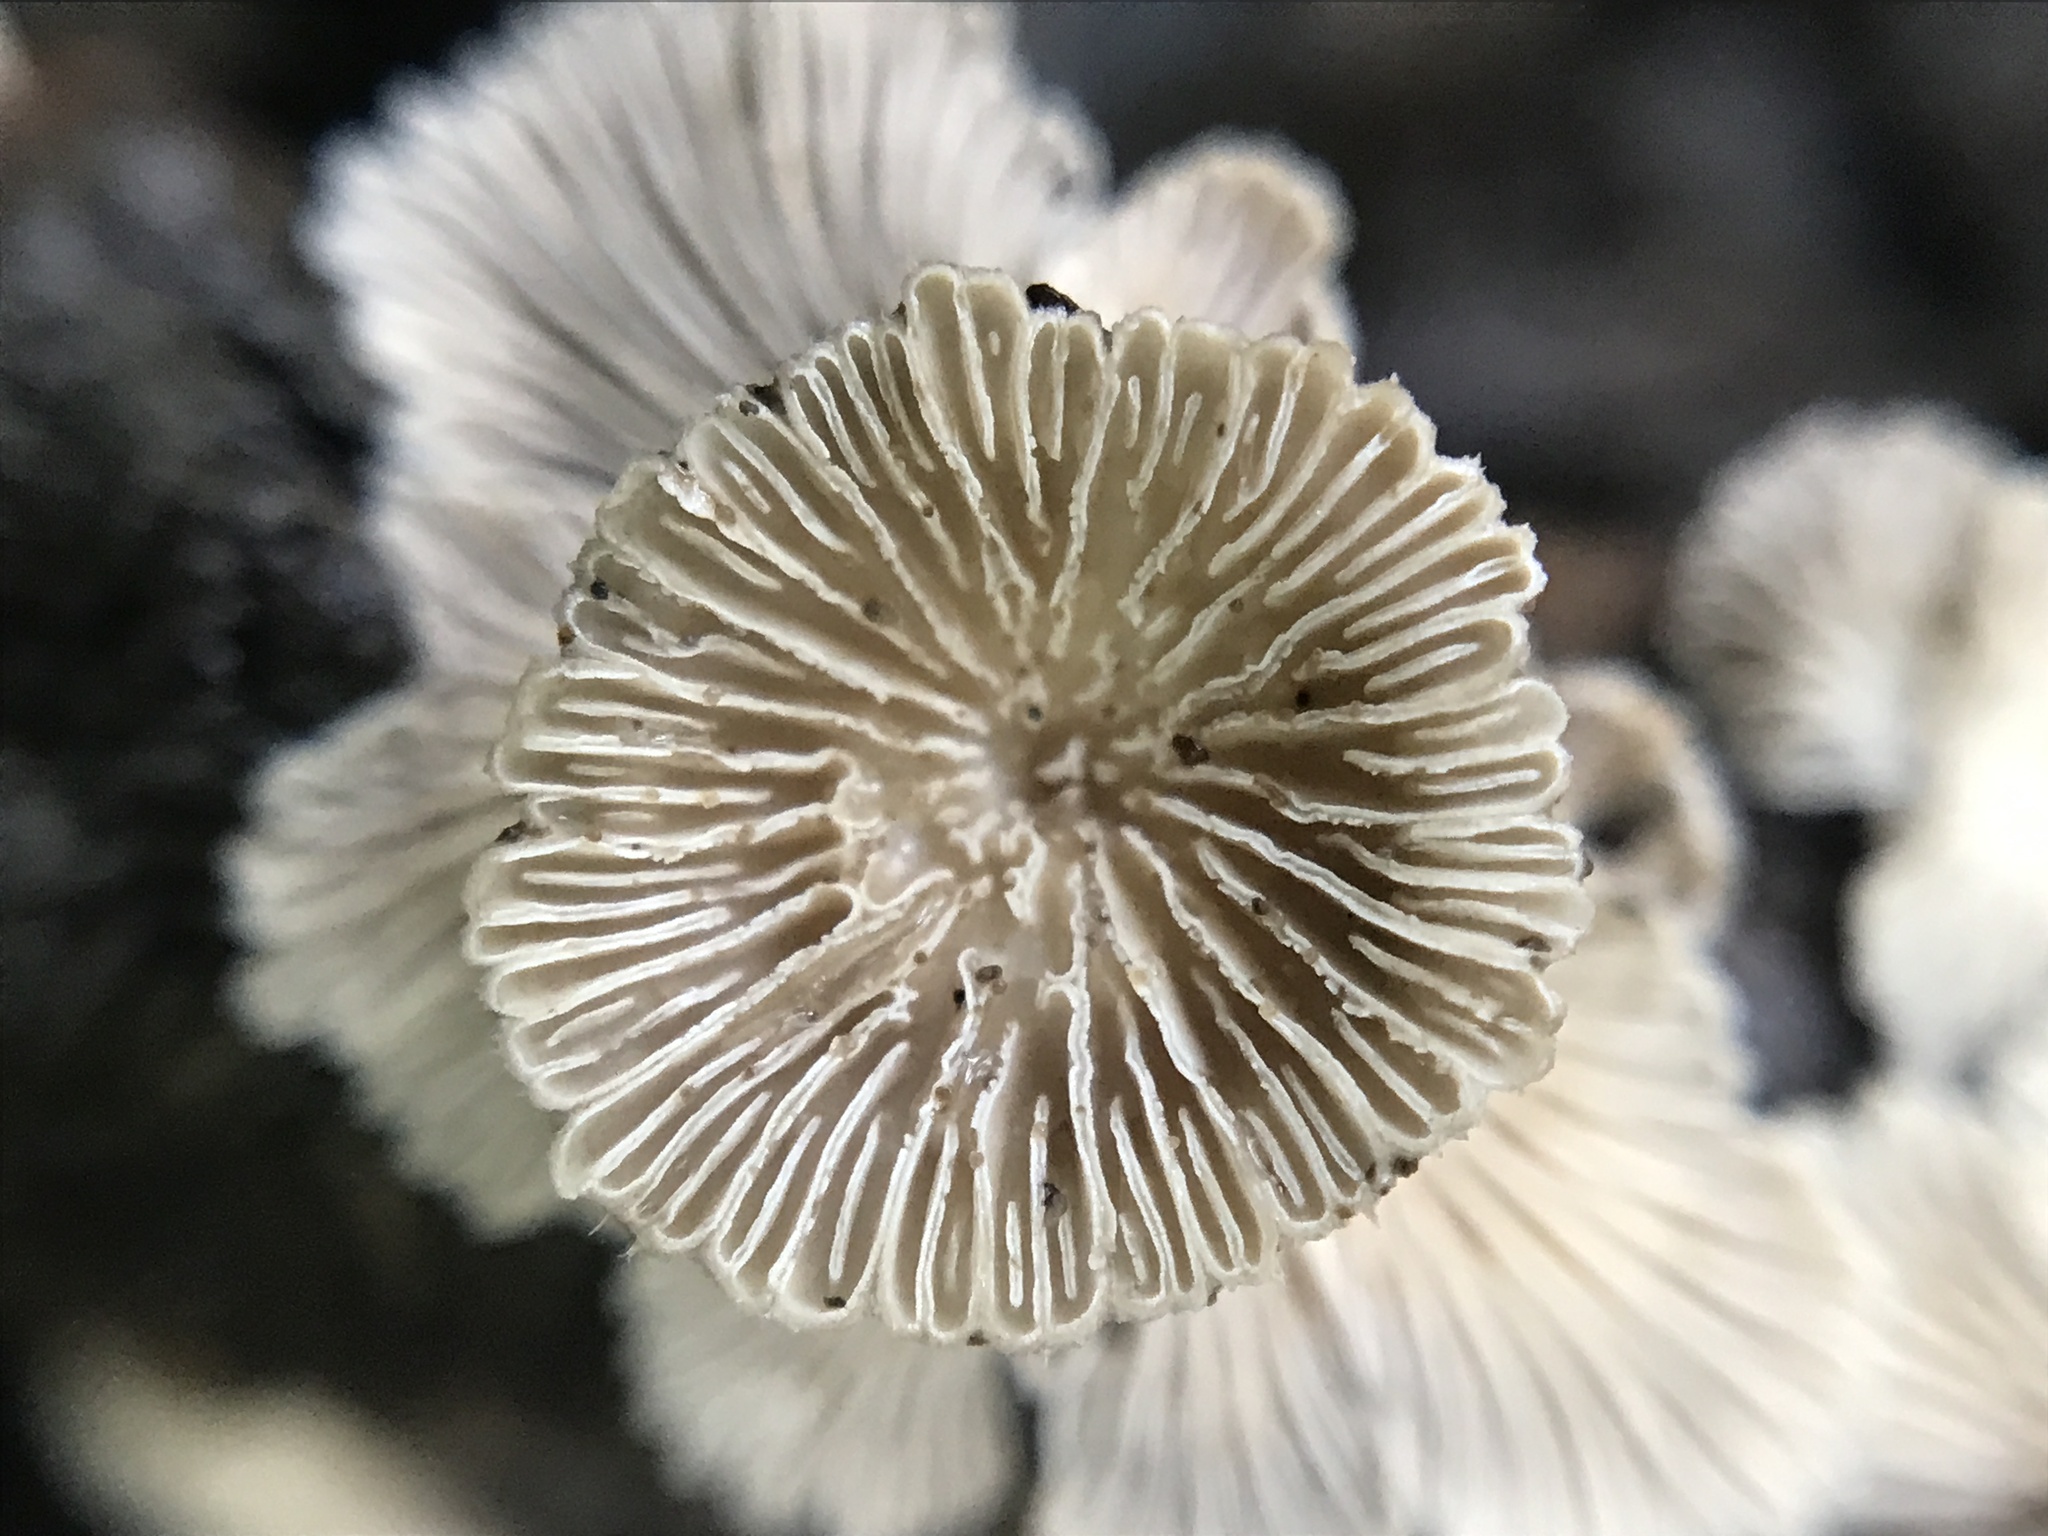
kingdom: Fungi
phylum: Basidiomycota
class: Agaricomycetes
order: Agaricales
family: Schizophyllaceae
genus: Schizophyllum
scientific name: Schizophyllum commune
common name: Common porecrust
